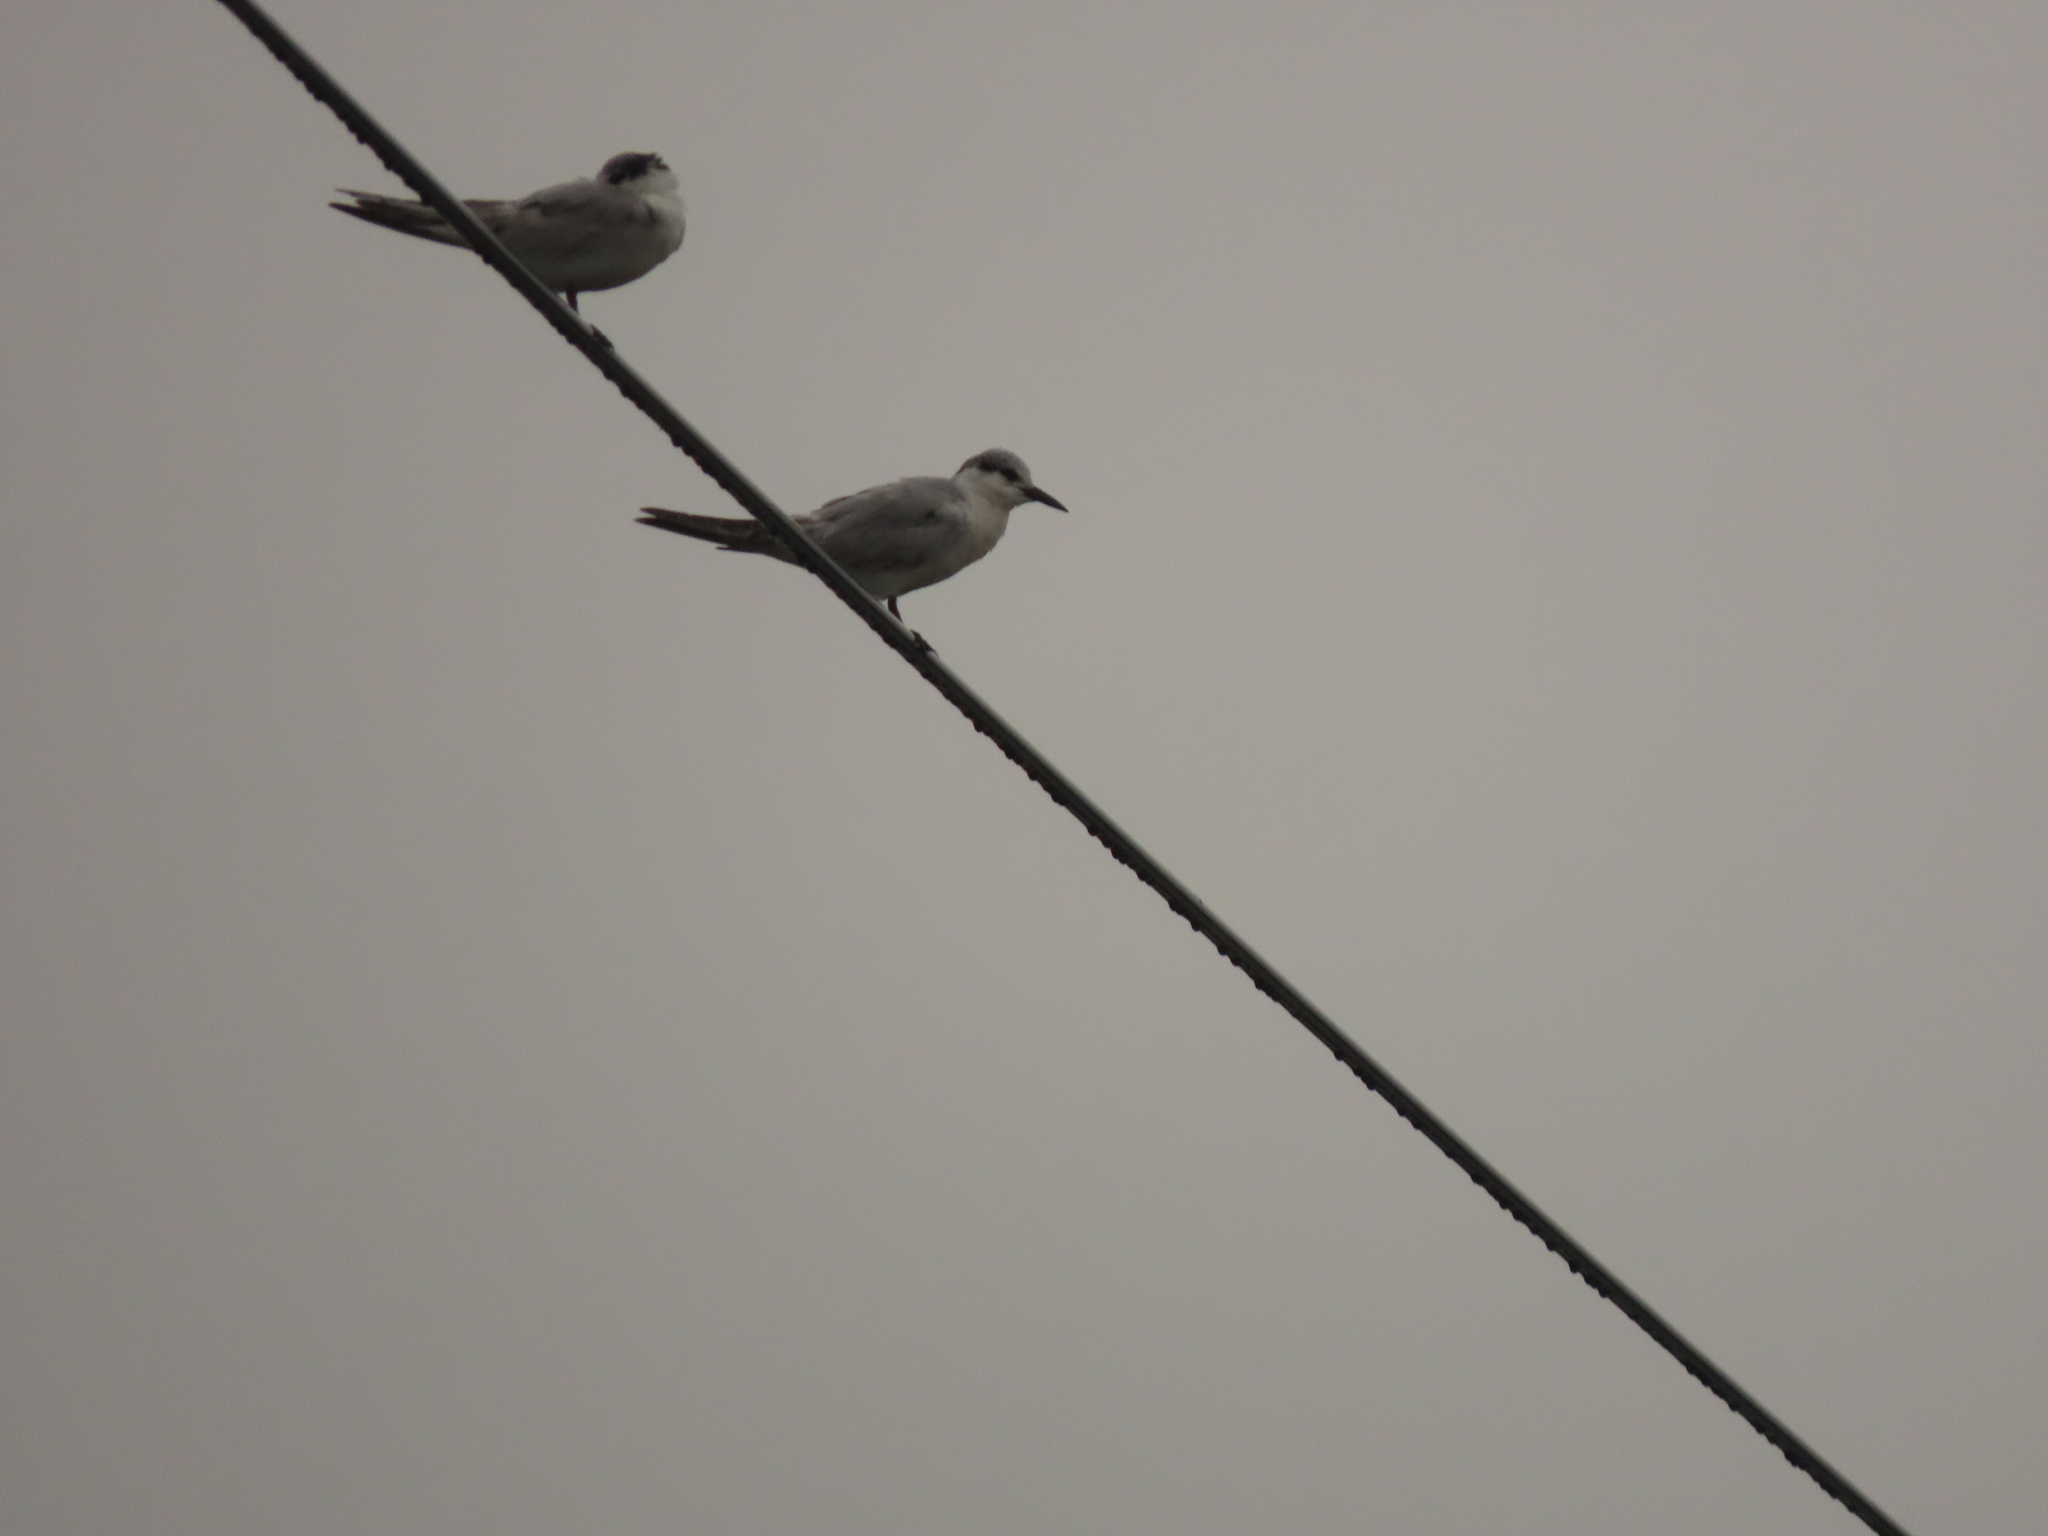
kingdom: Animalia
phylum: Chordata
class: Aves
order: Charadriiformes
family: Laridae
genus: Chlidonias
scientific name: Chlidonias hybrida
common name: Whiskered tern
